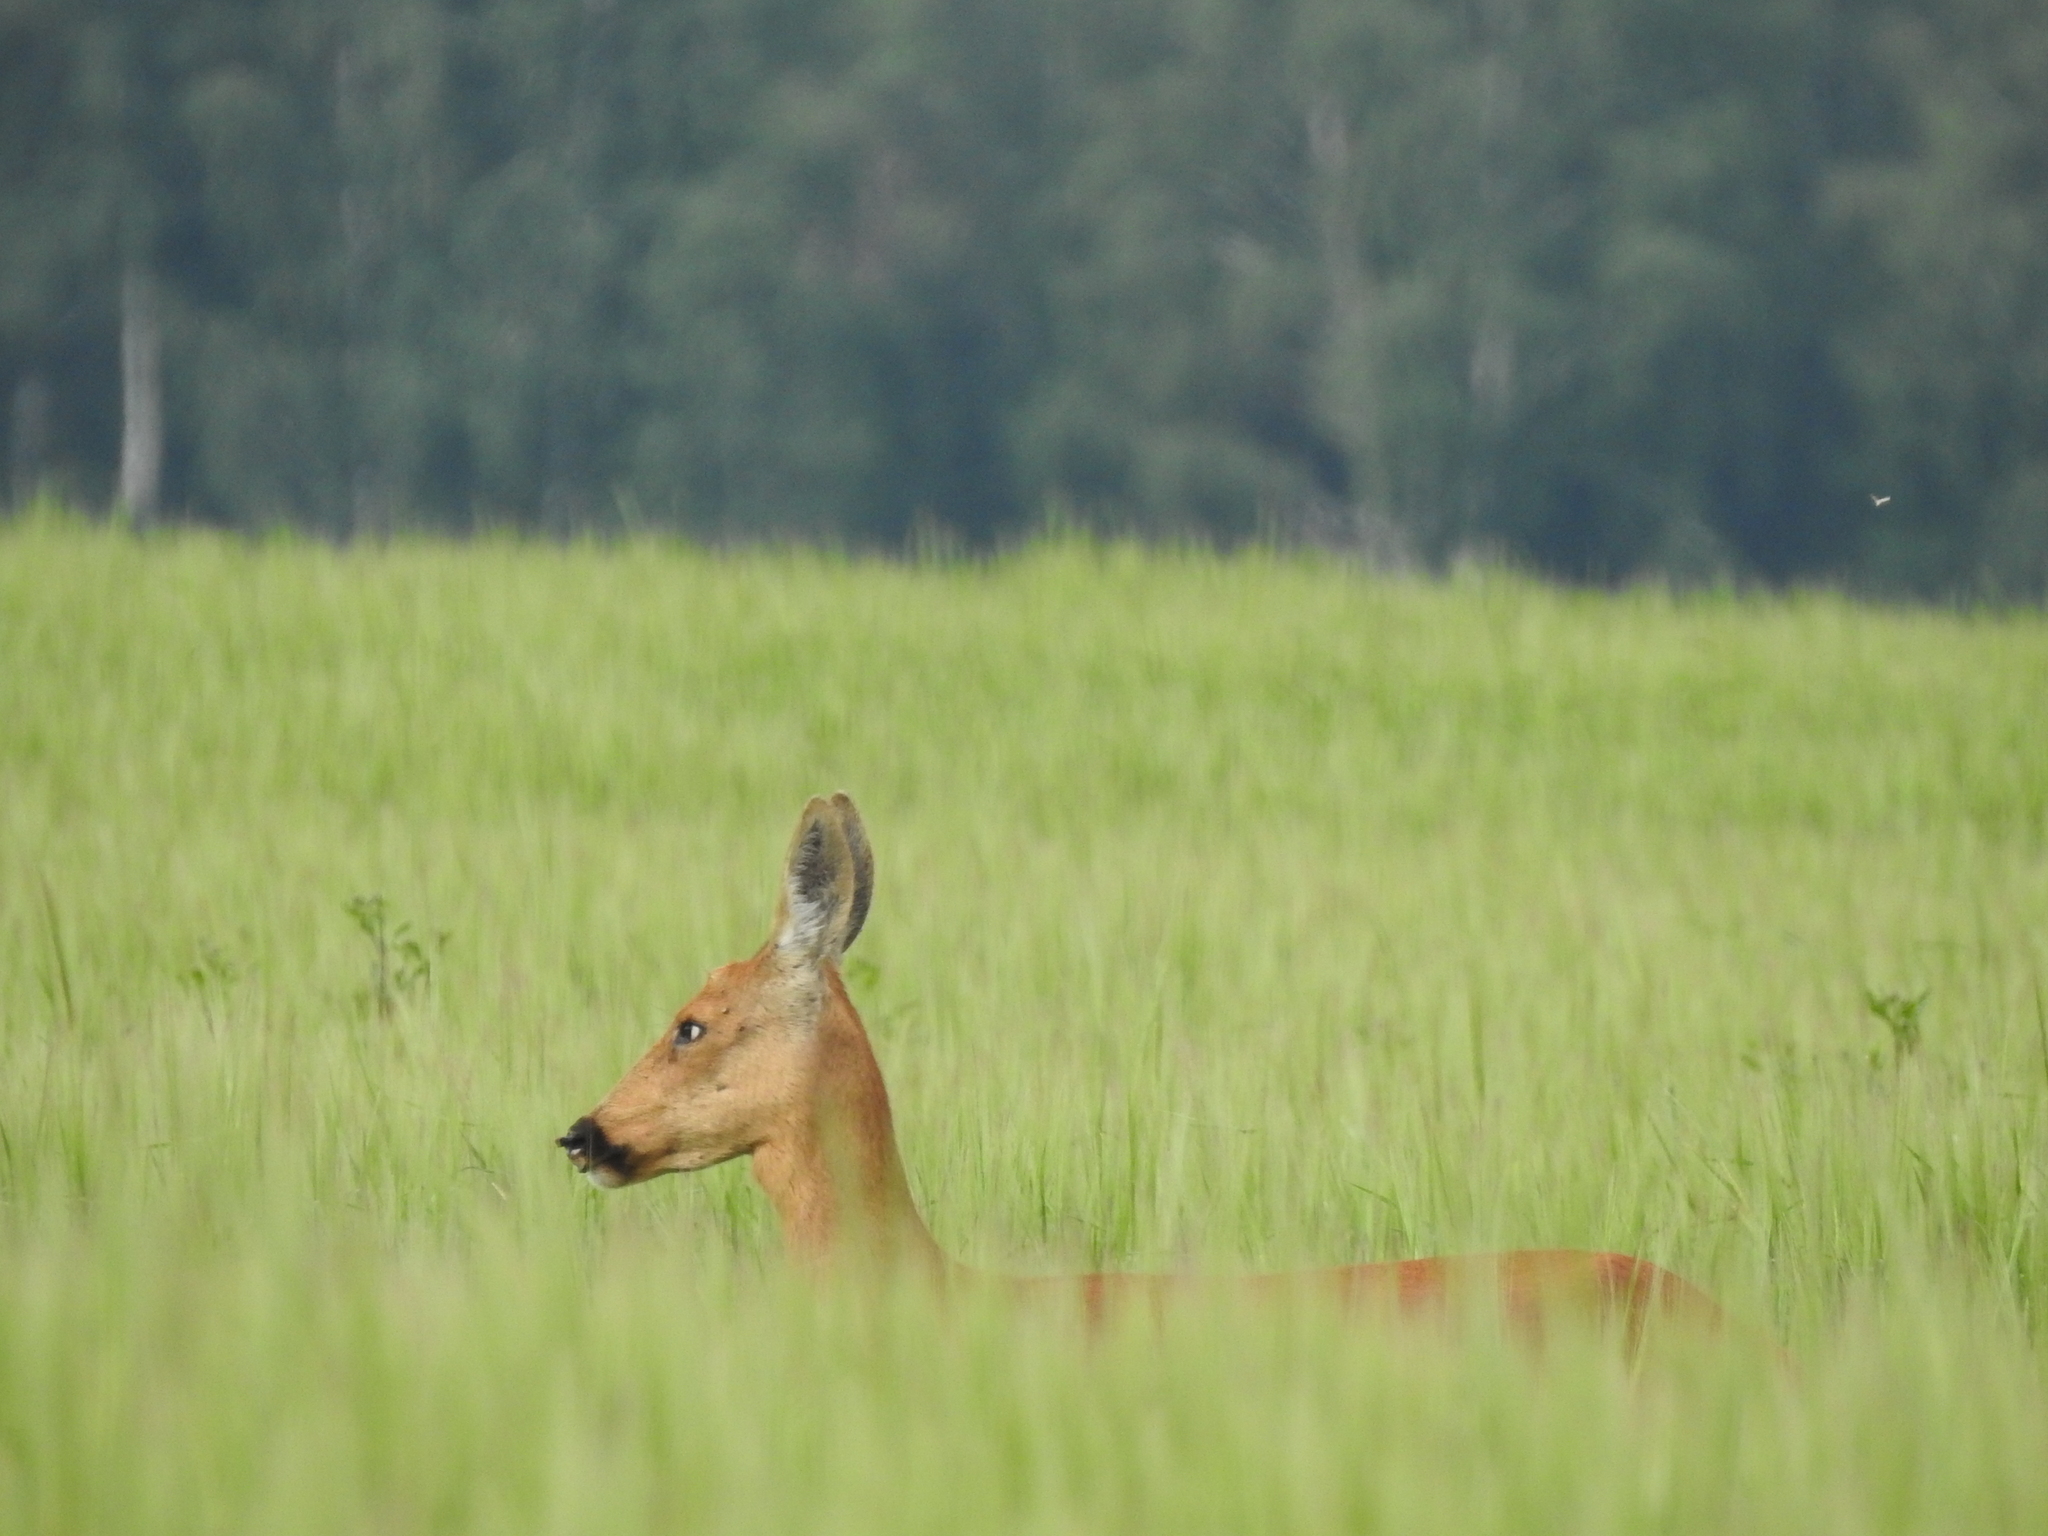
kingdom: Animalia
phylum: Chordata
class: Mammalia
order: Artiodactyla
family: Cervidae
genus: Capreolus
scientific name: Capreolus pygargus
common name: Siberian roe
